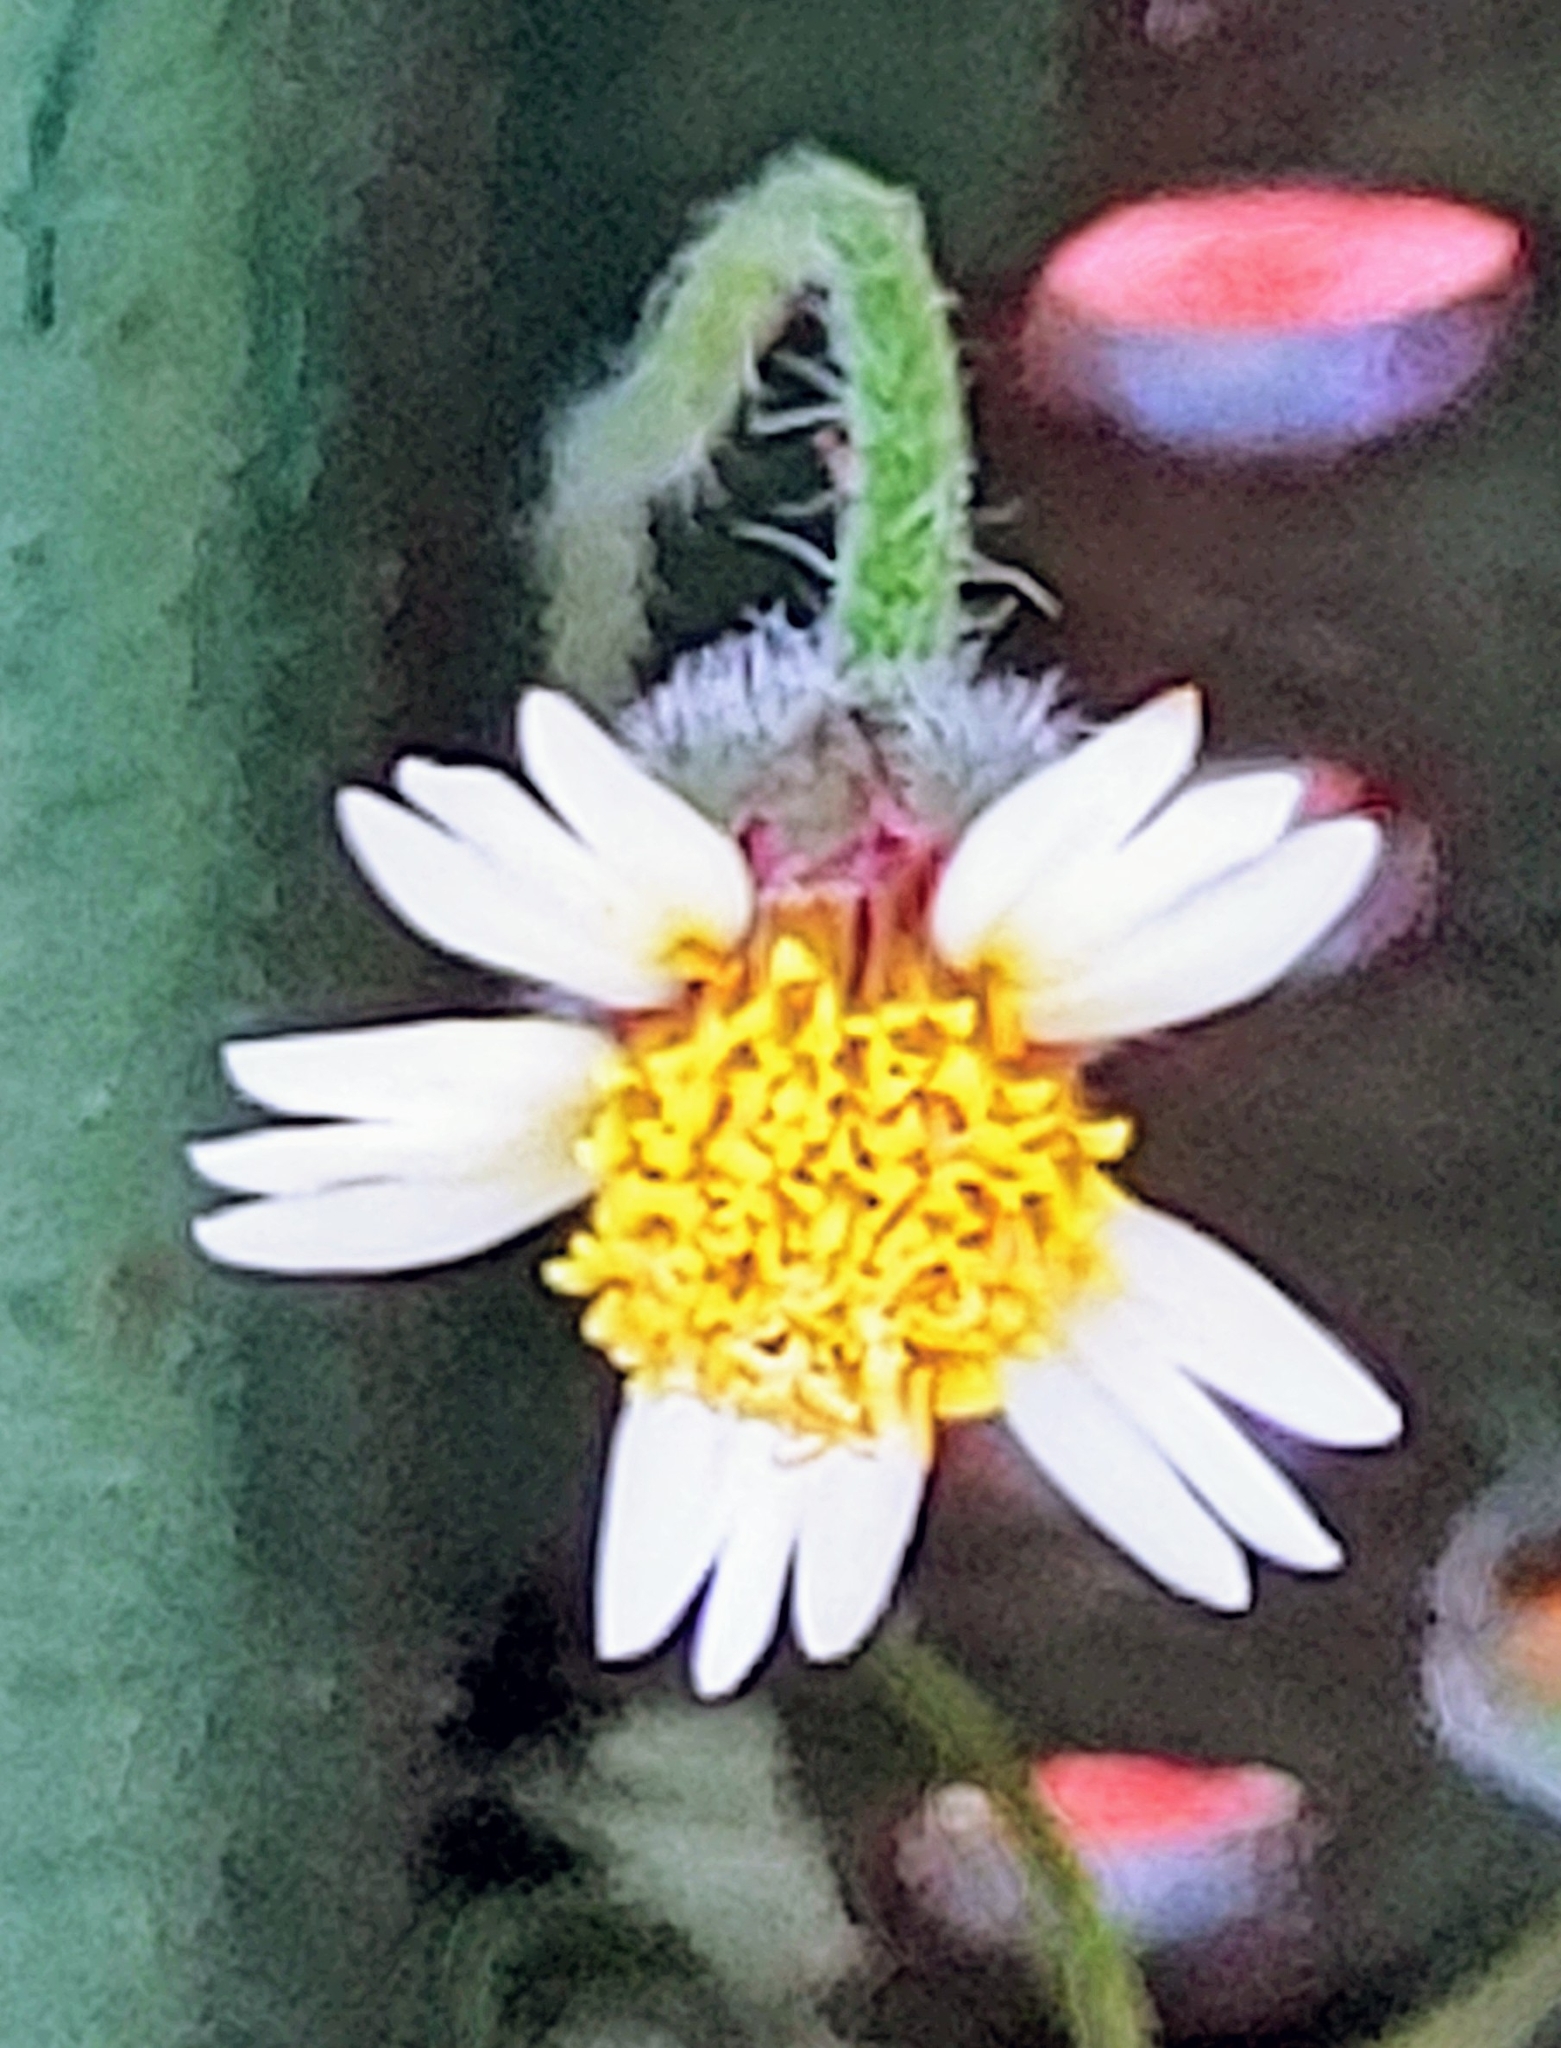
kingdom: Plantae
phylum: Tracheophyta
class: Magnoliopsida
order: Asterales
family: Asteraceae
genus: Tridax
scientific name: Tridax procumbens
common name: Coatbuttons
